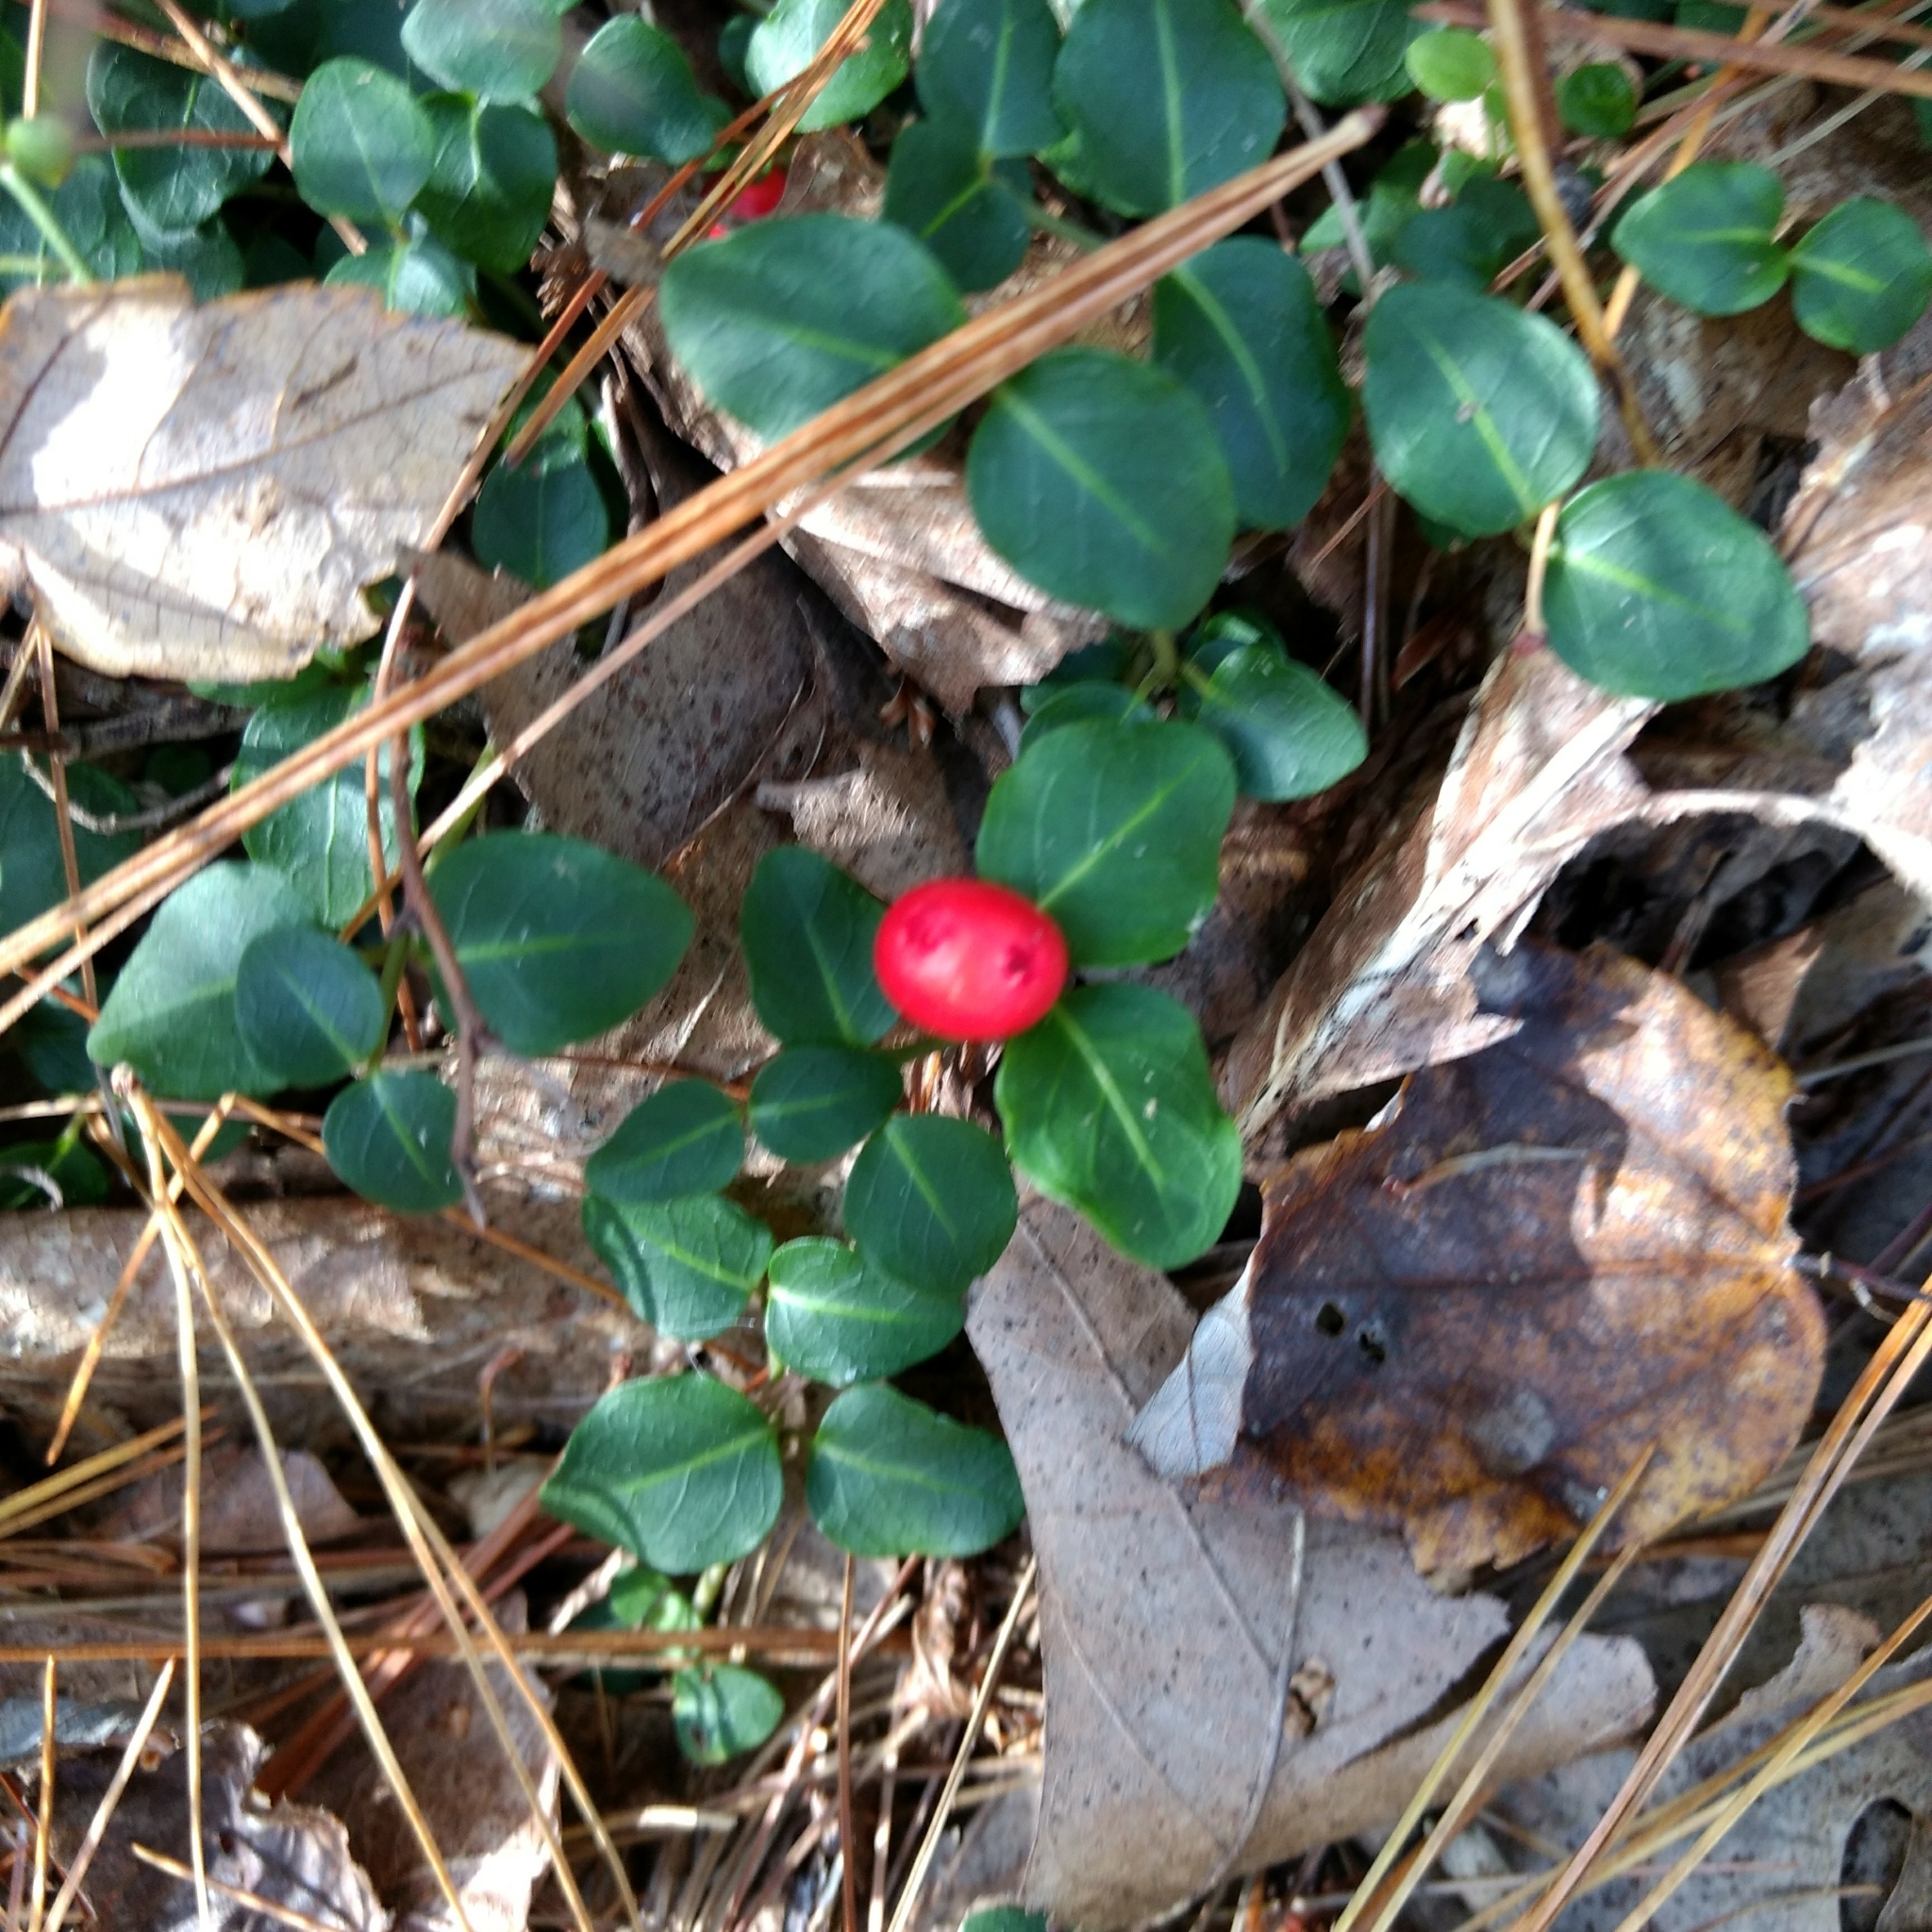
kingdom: Plantae
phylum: Tracheophyta
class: Magnoliopsida
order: Gentianales
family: Rubiaceae
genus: Mitchella
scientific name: Mitchella repens
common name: Partridge-berry
